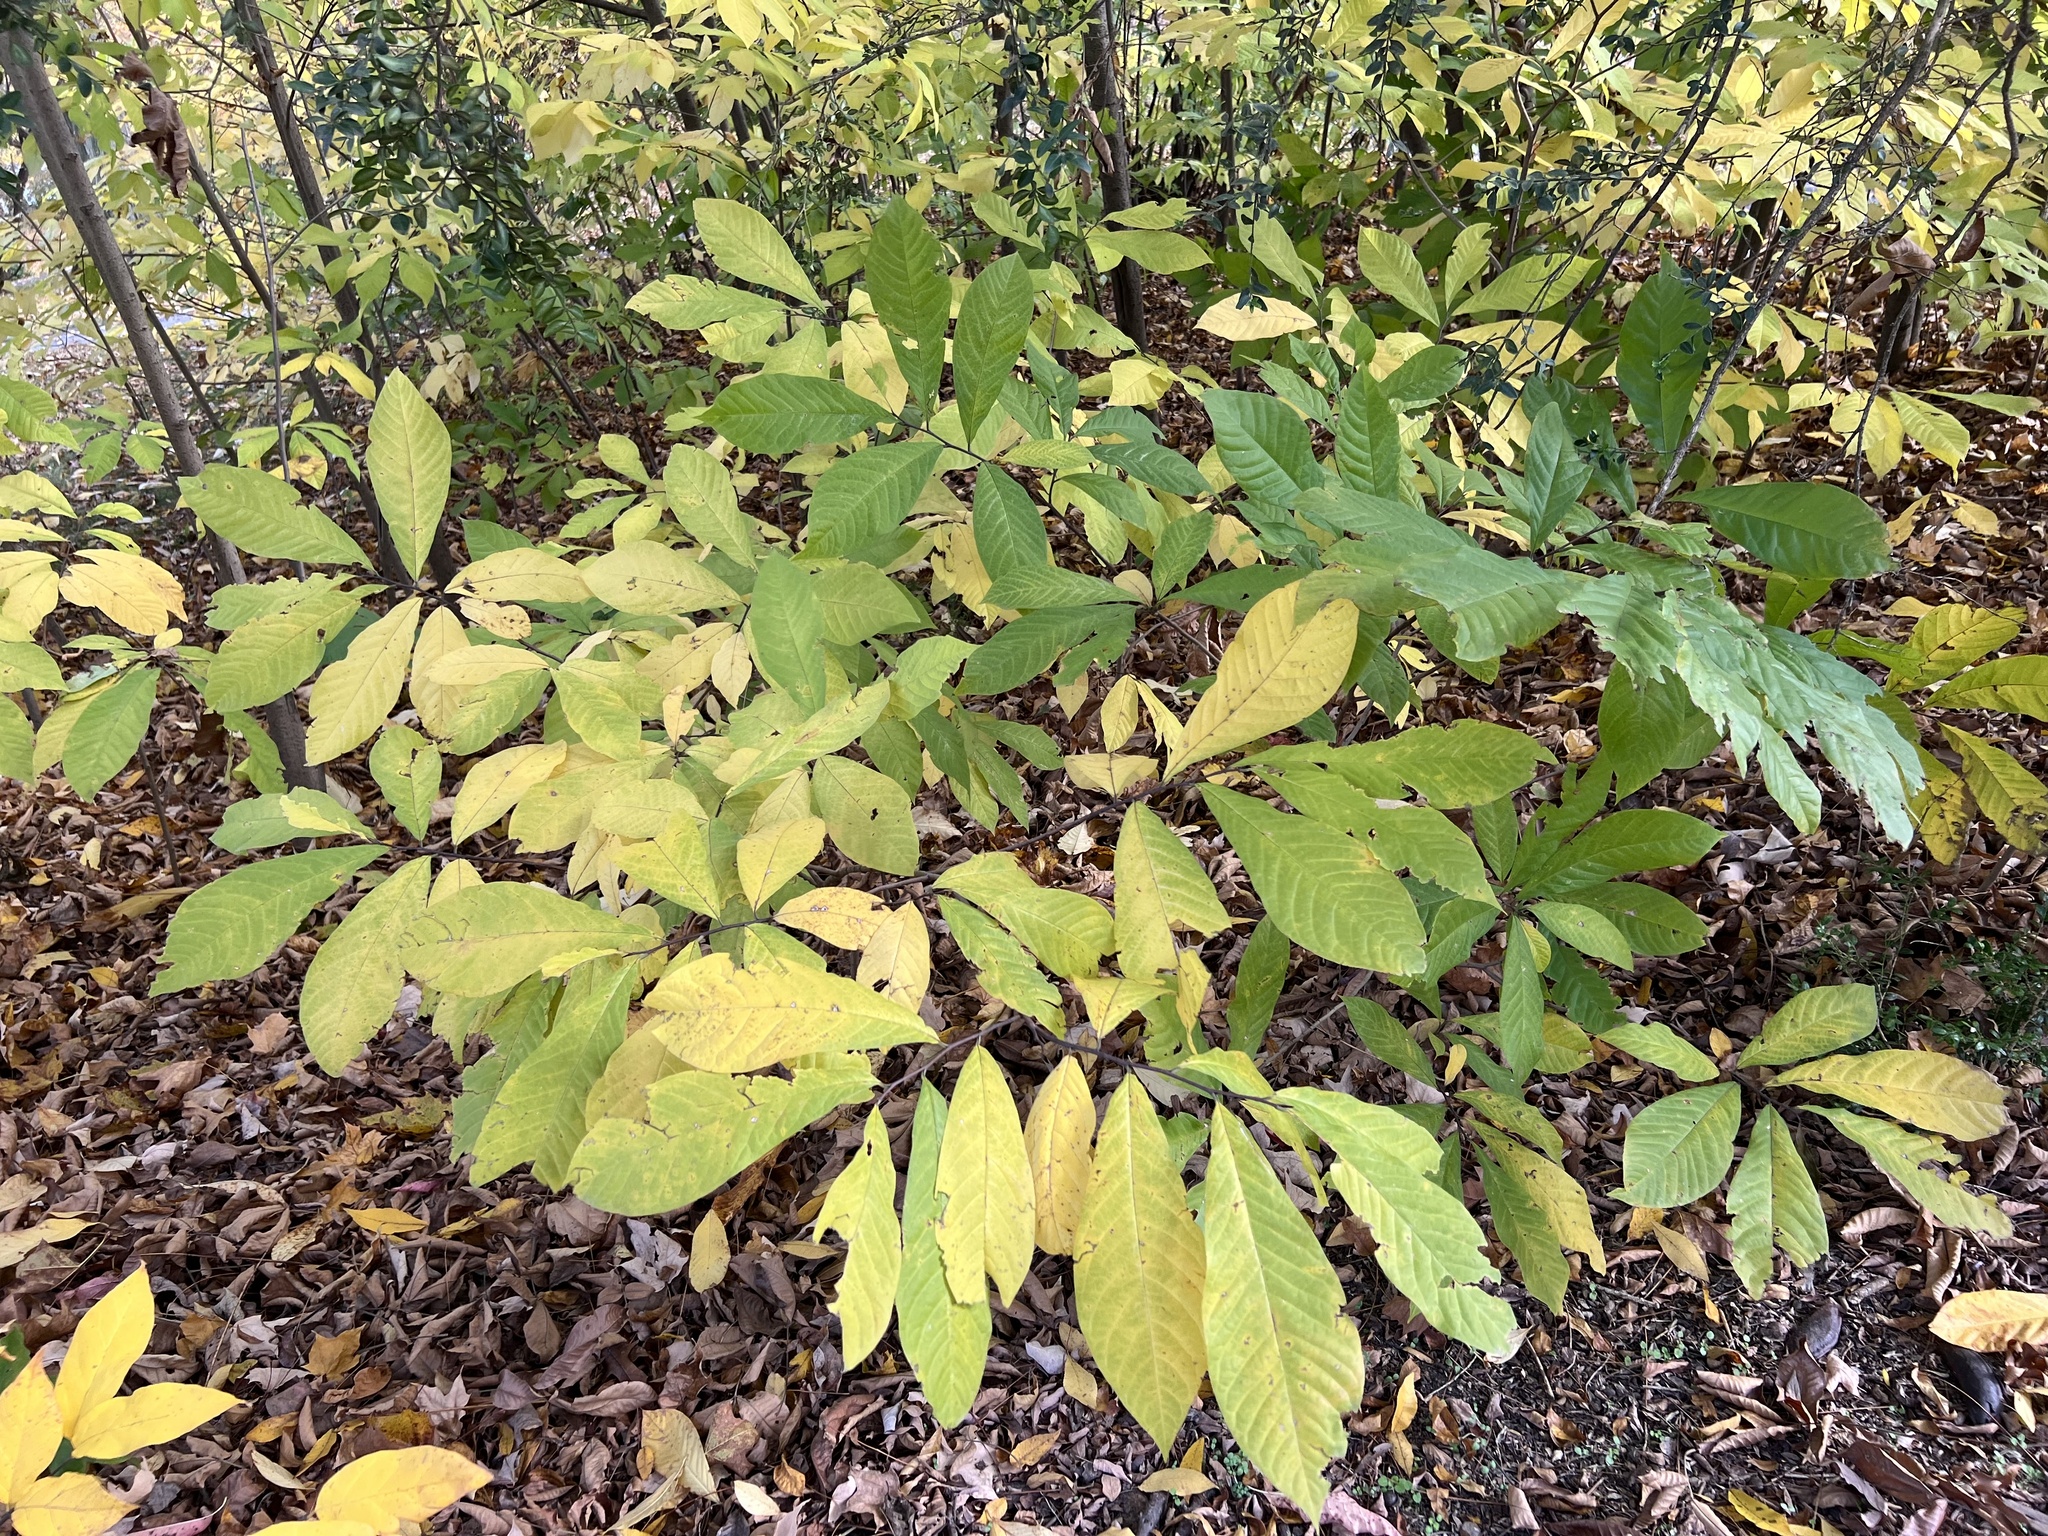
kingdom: Plantae
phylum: Tracheophyta
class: Magnoliopsida
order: Magnoliales
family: Annonaceae
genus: Asimina
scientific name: Asimina triloba
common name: Dog-banana
